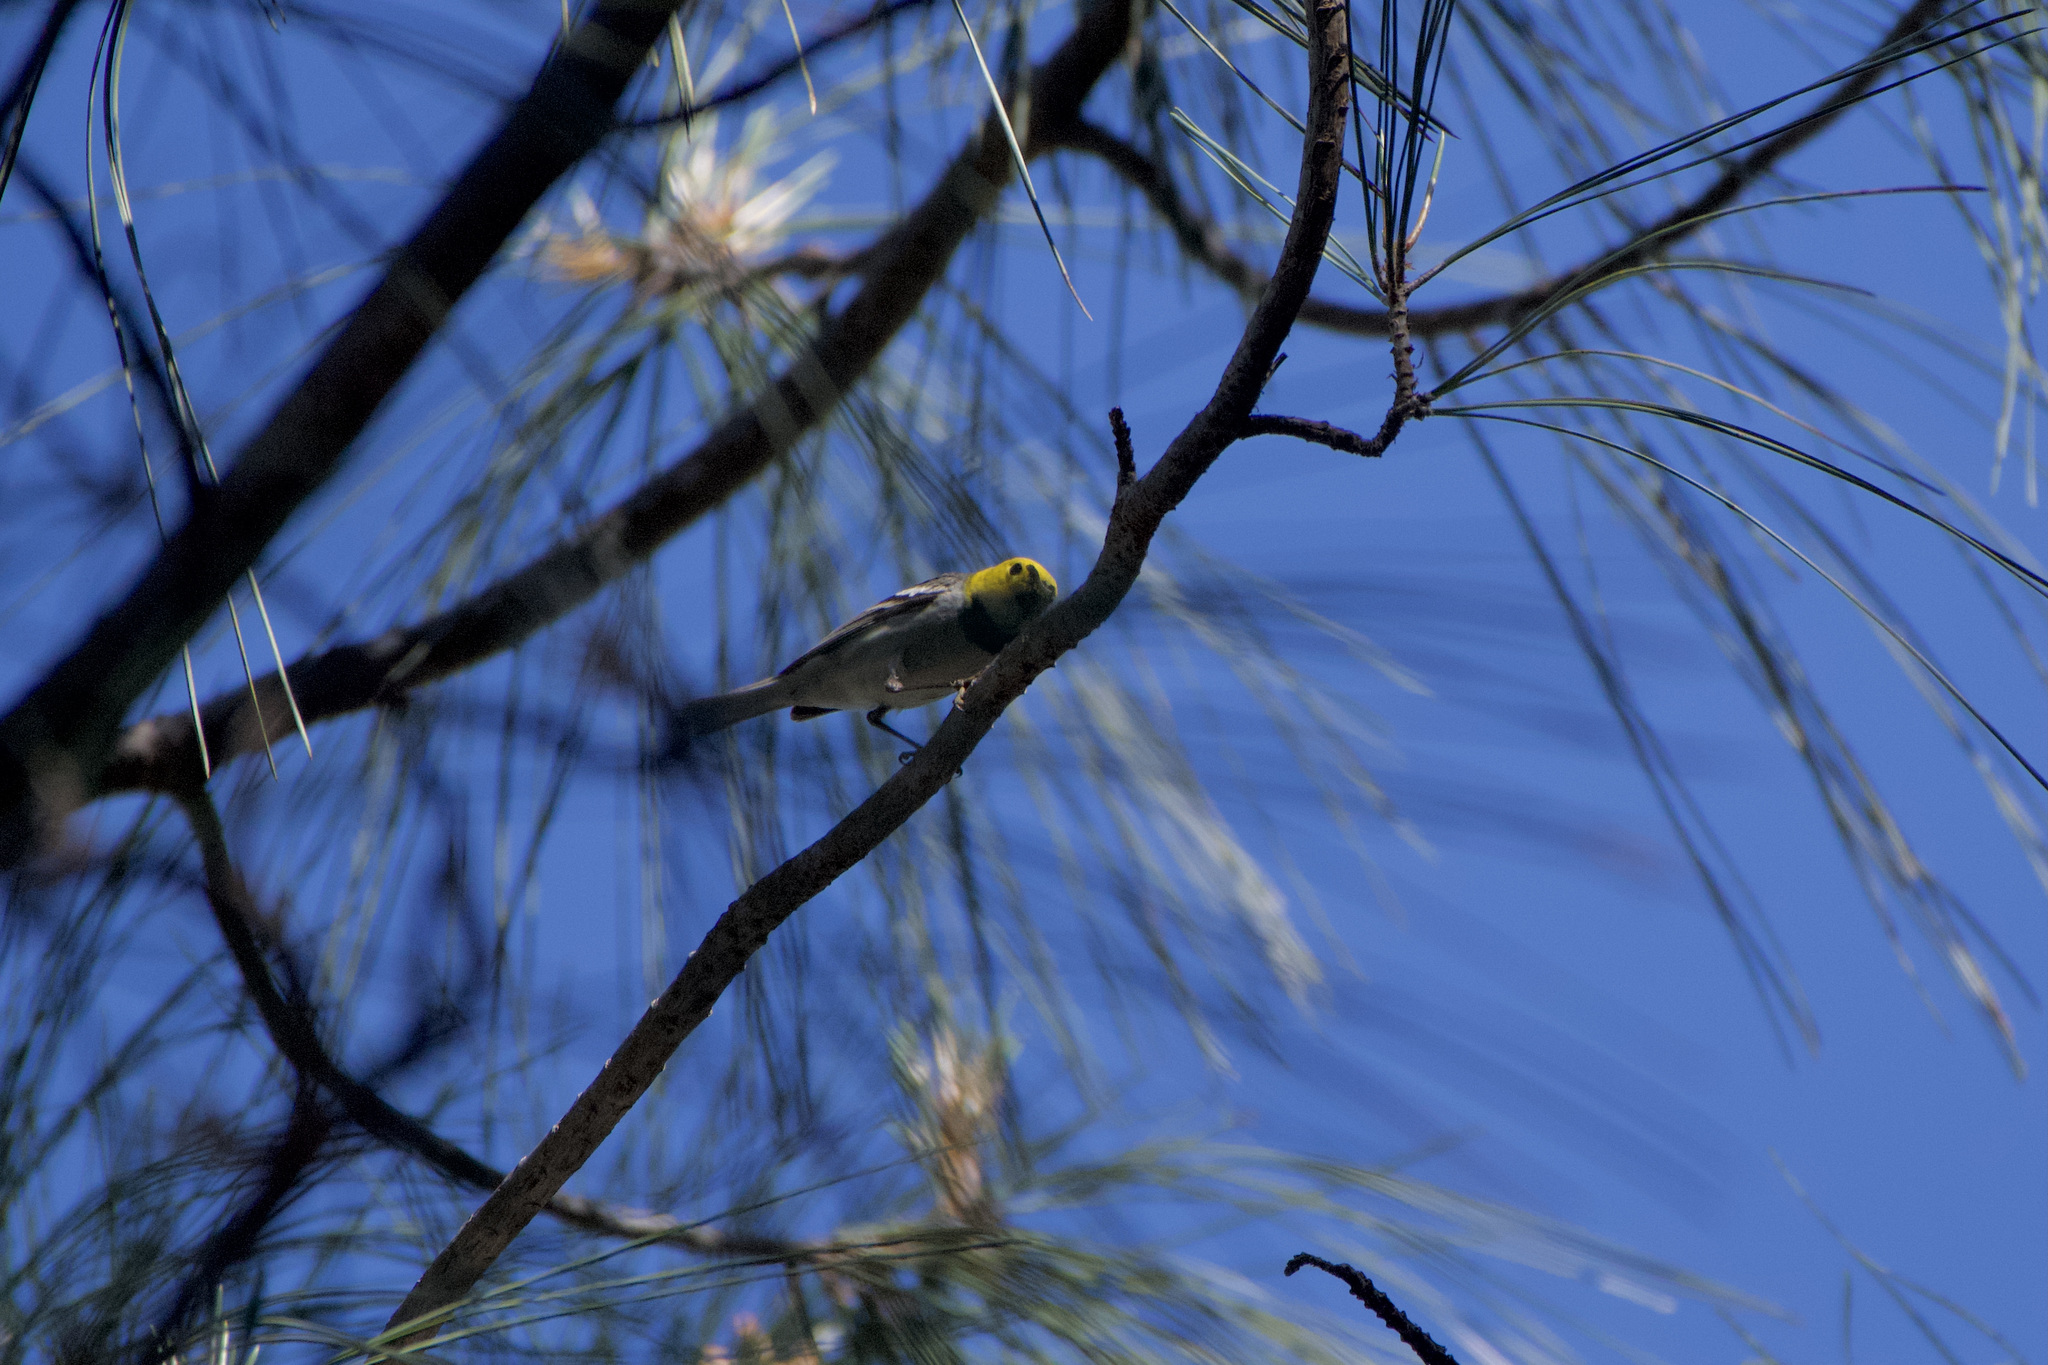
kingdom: Animalia
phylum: Chordata
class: Aves
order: Passeriformes
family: Parulidae
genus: Setophaga
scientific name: Setophaga occidentalis
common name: Hermit warbler
